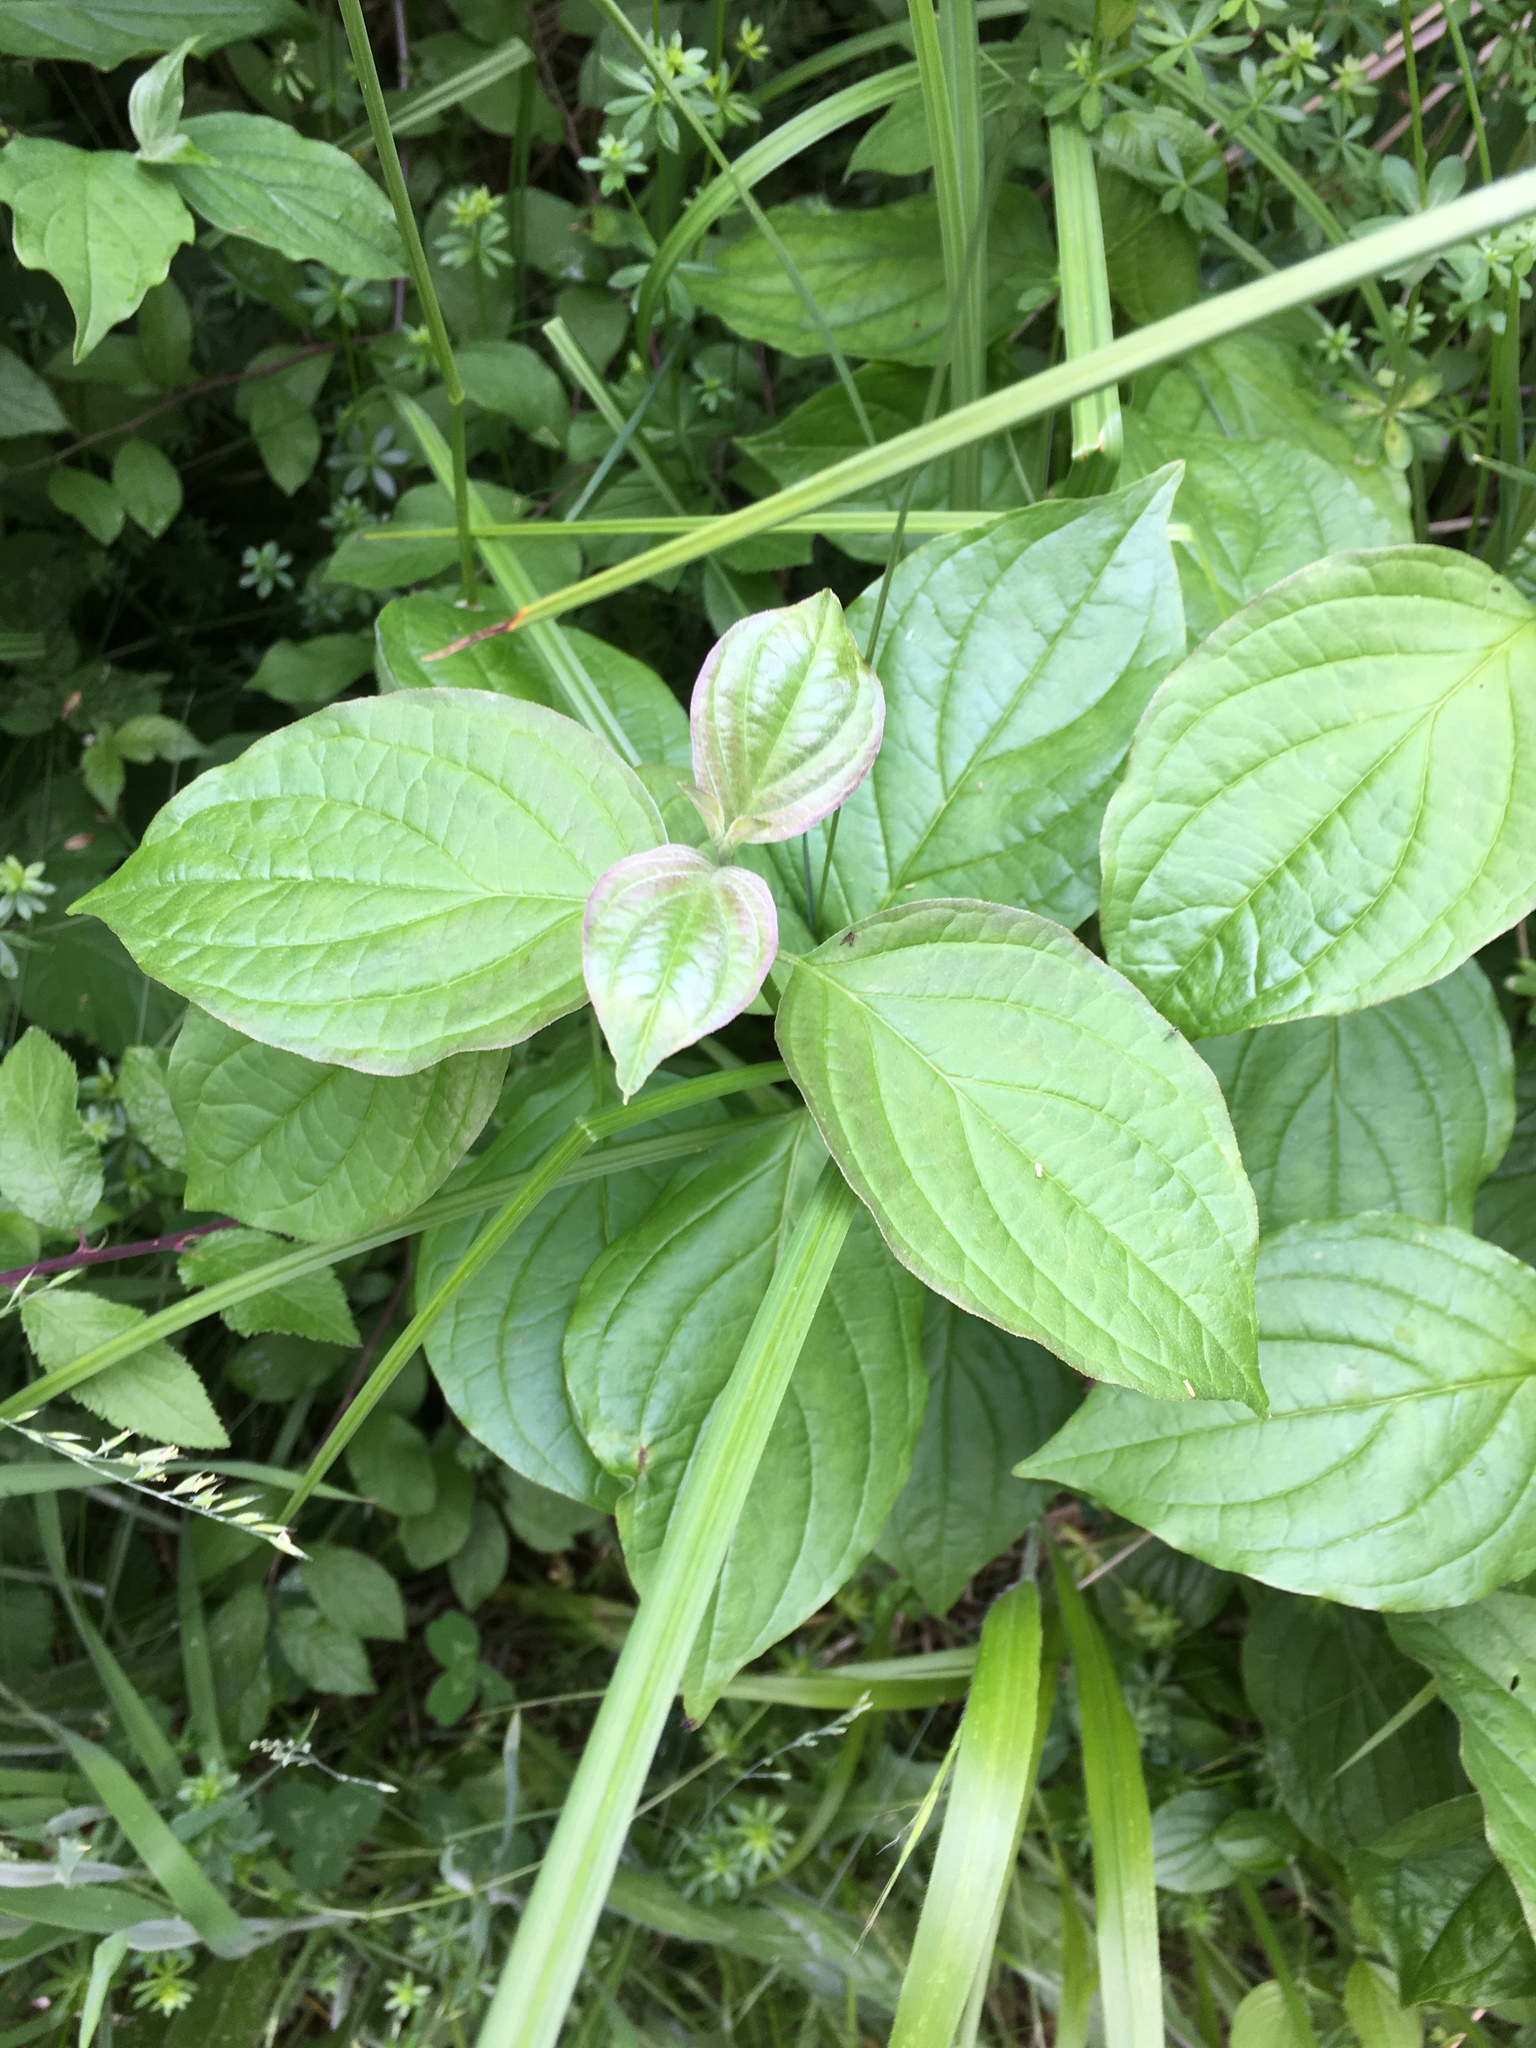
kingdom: Plantae
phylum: Tracheophyta
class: Magnoliopsida
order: Cornales
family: Cornaceae
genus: Cornus
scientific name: Cornus sanguinea
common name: Dogwood
